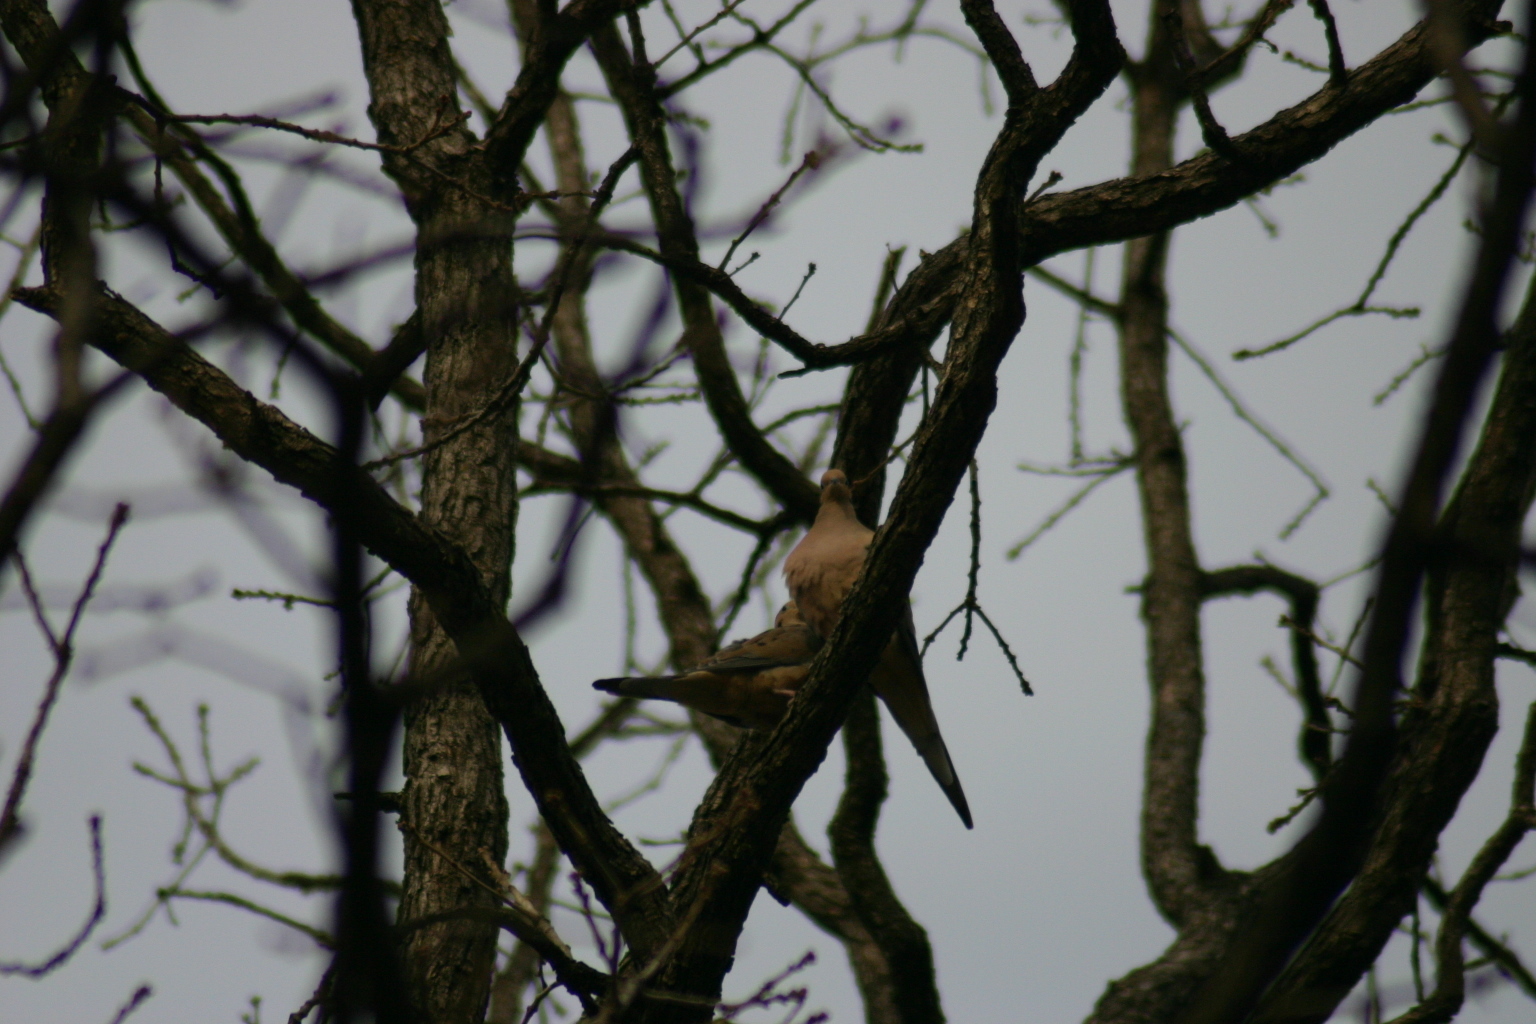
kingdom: Animalia
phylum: Chordata
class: Aves
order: Columbiformes
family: Columbidae
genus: Zenaida
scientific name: Zenaida macroura
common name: Mourning dove
